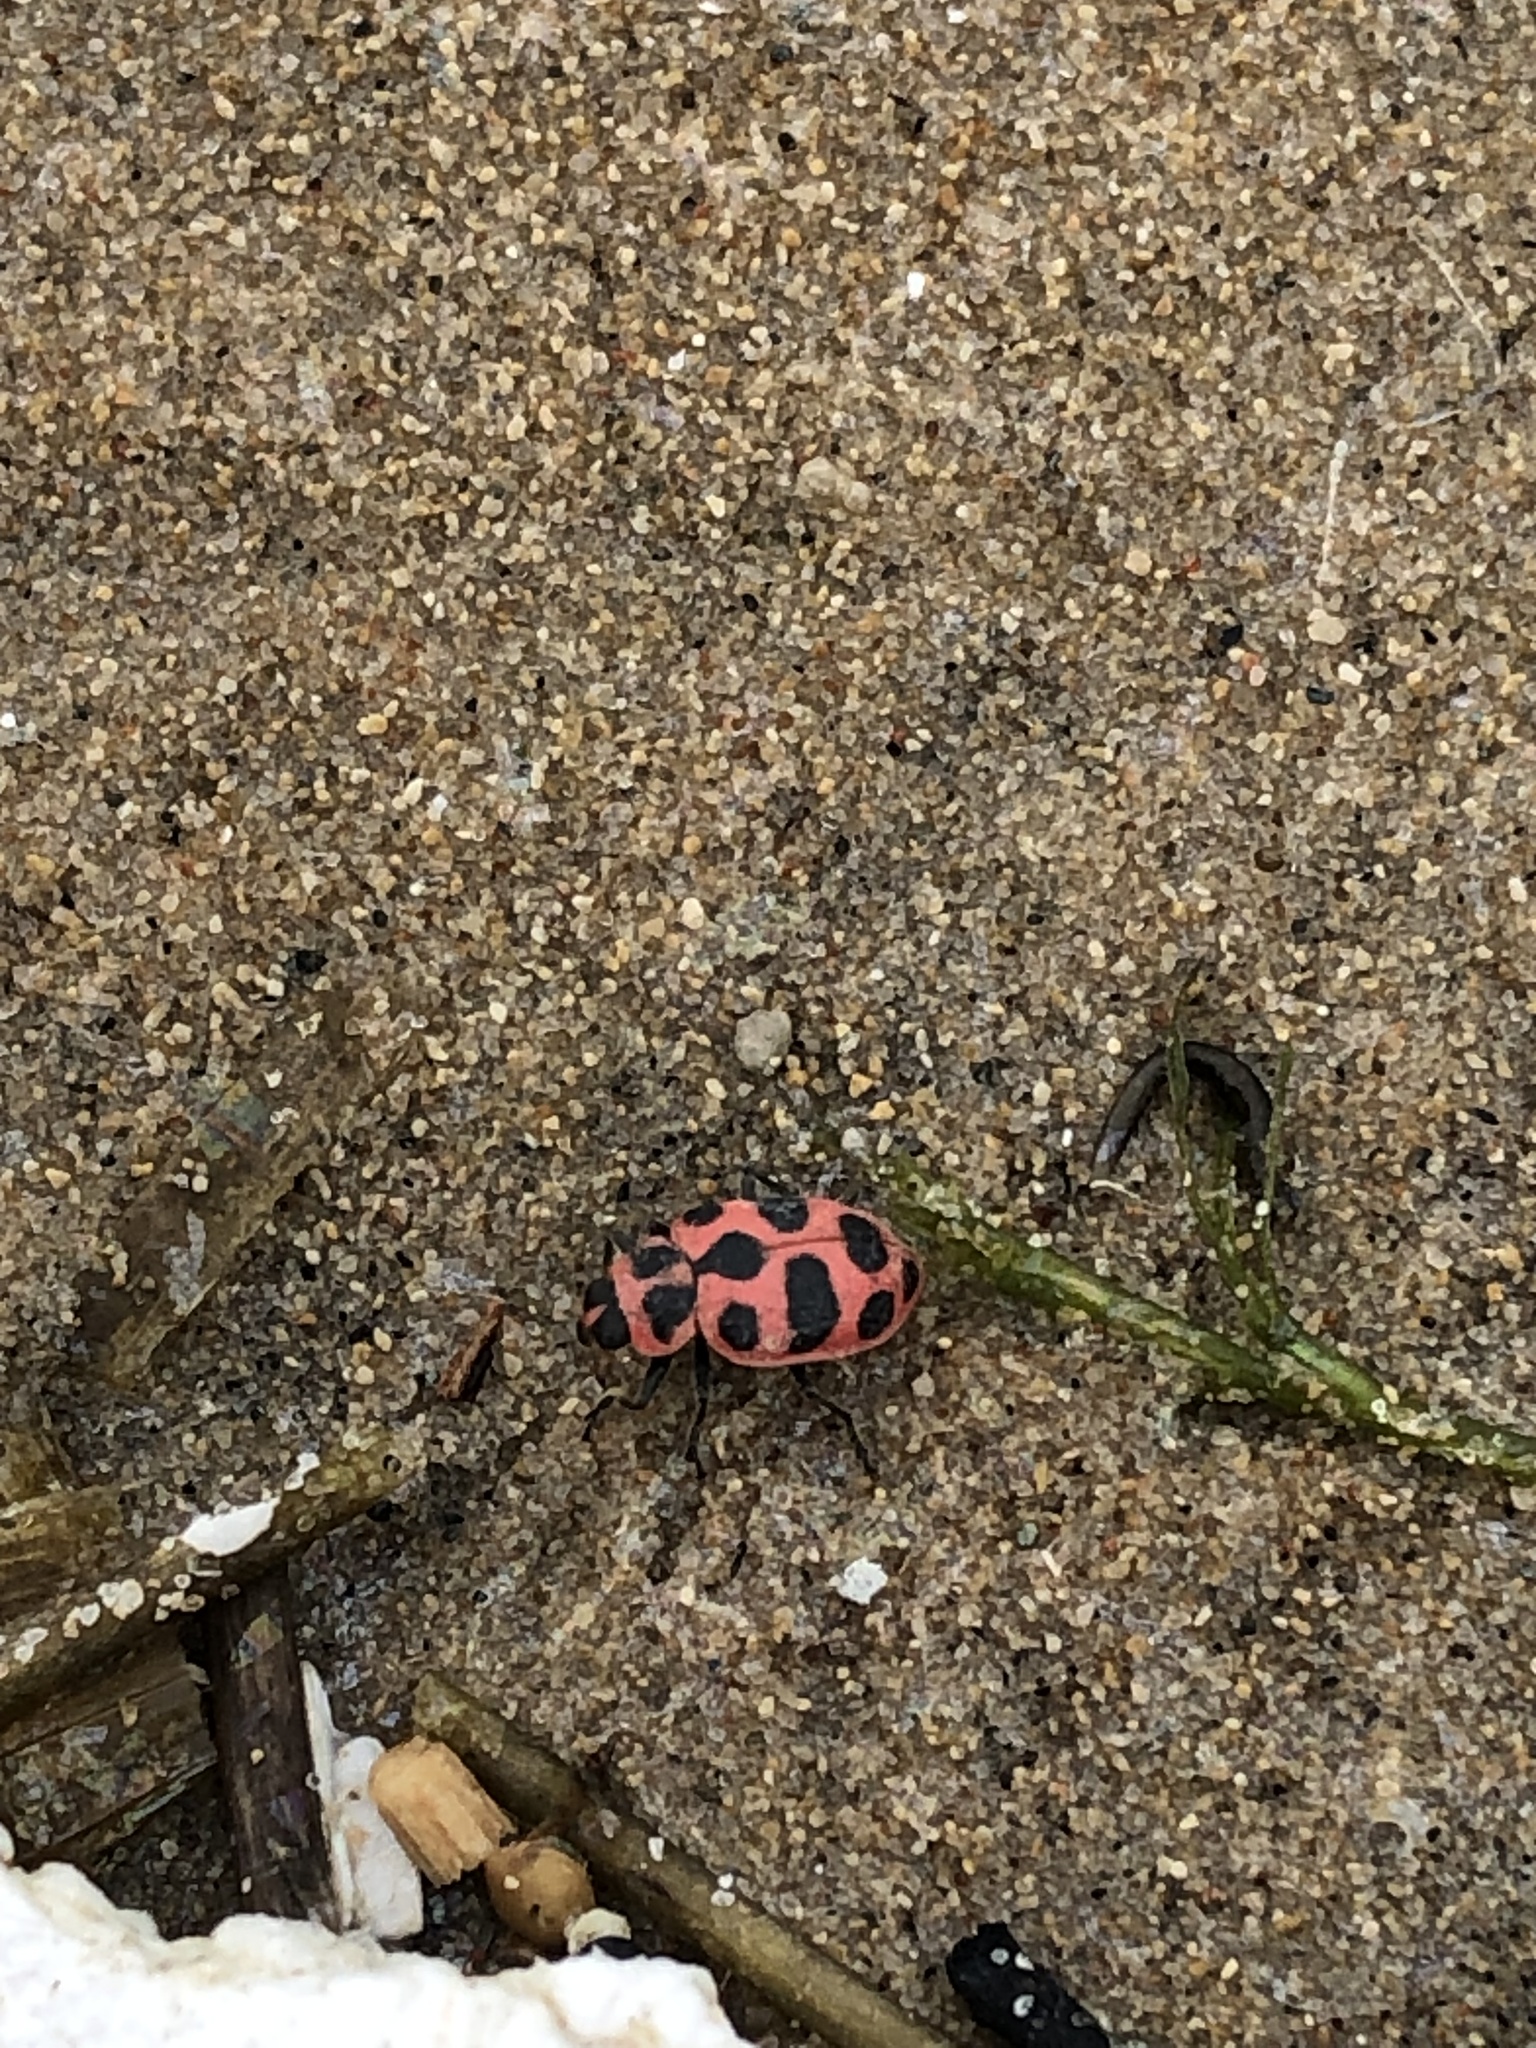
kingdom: Animalia
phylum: Arthropoda
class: Insecta
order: Coleoptera
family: Coccinellidae
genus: Coleomegilla
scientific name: Coleomegilla maculata
